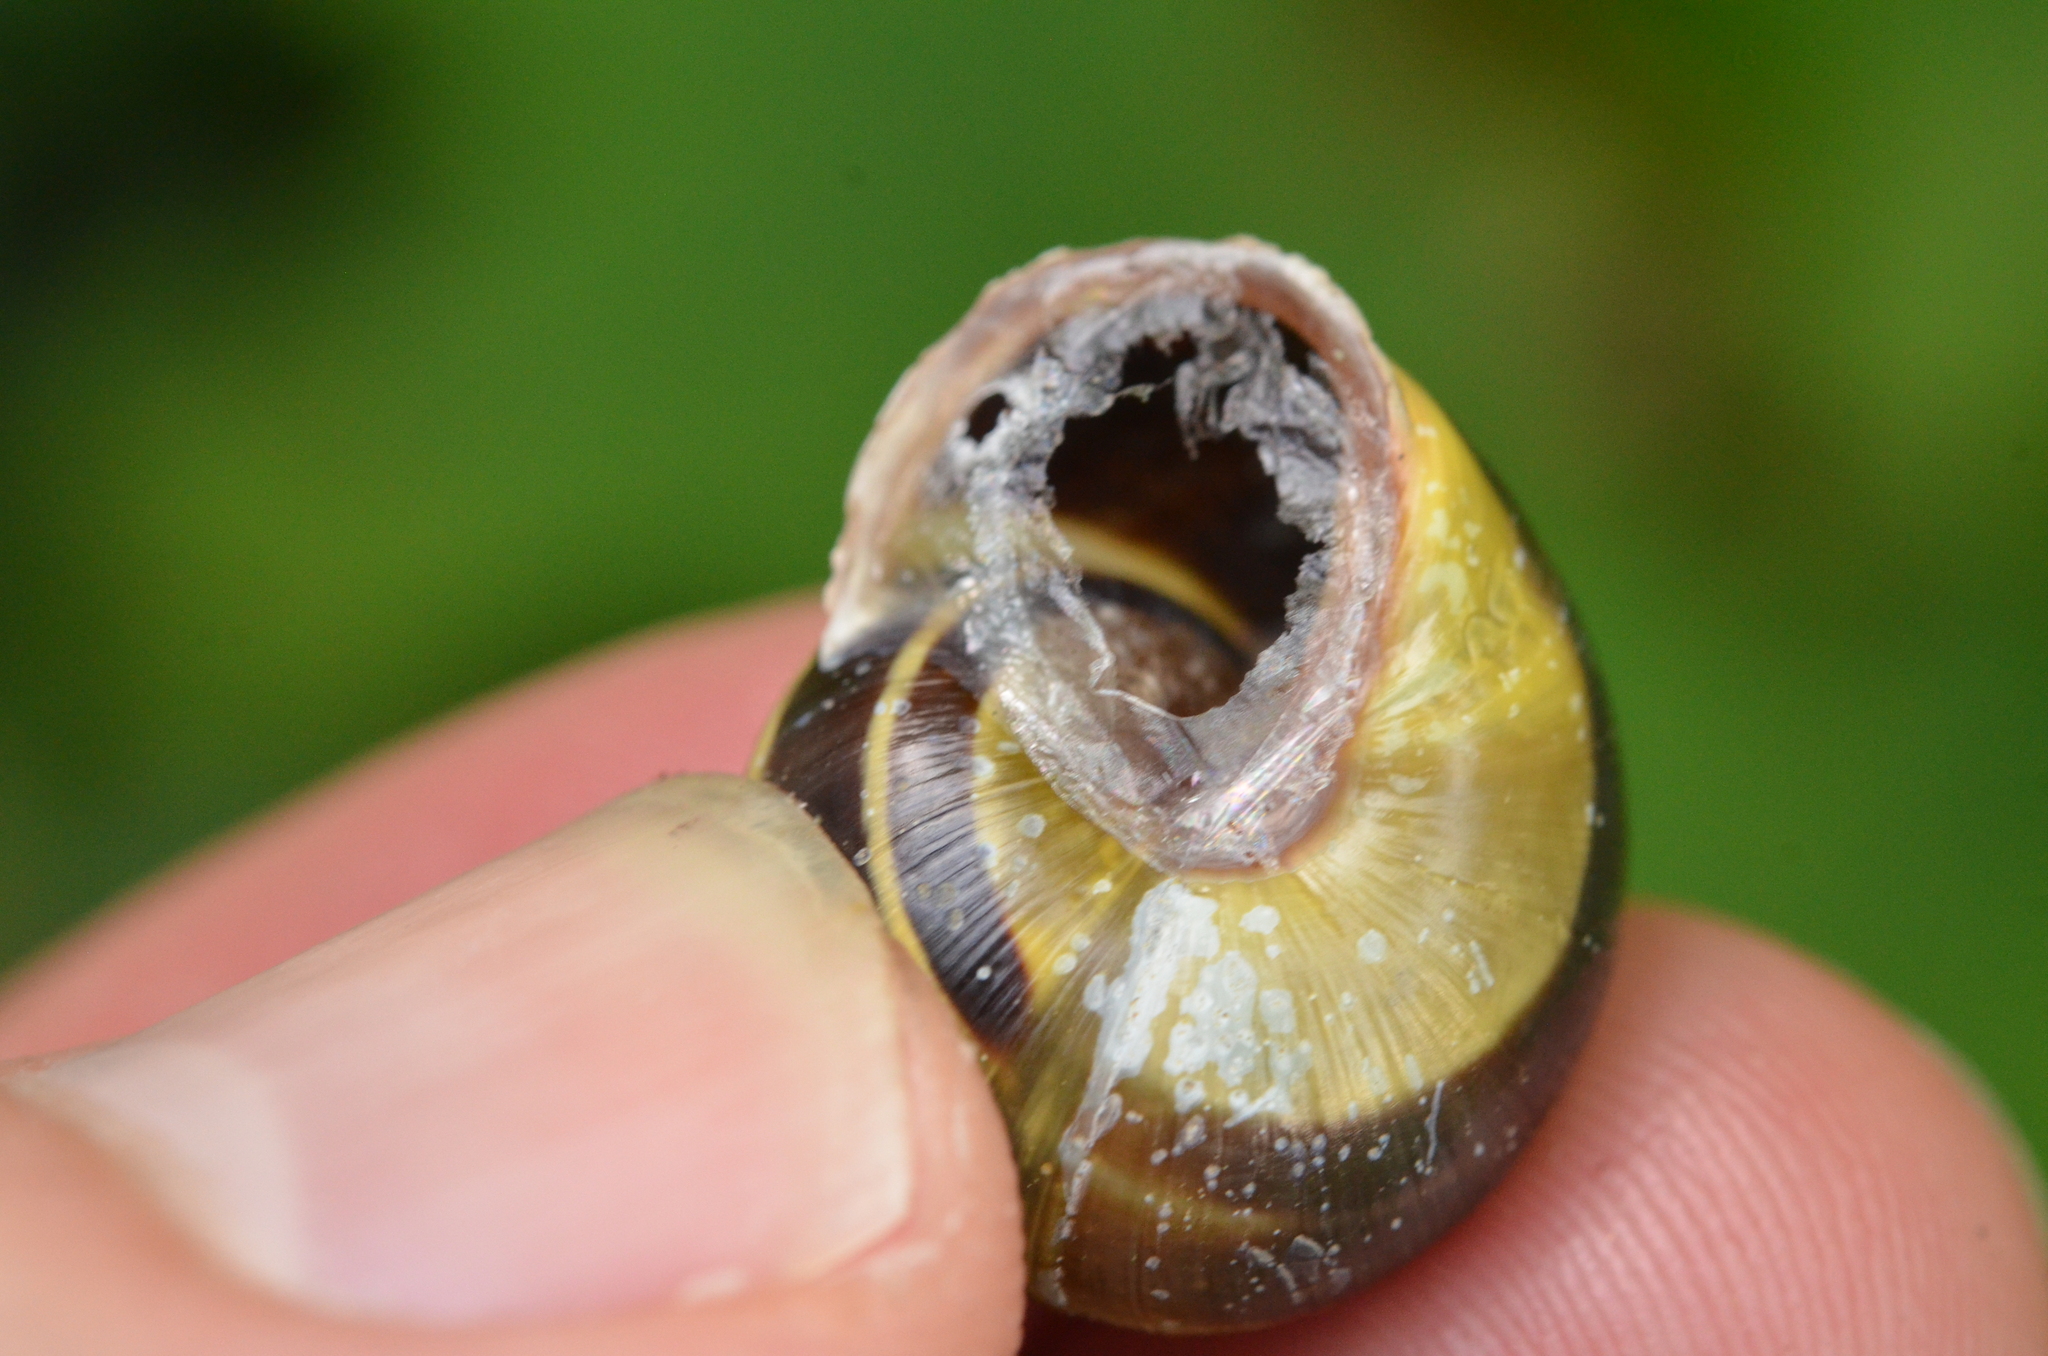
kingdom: Animalia
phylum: Mollusca
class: Gastropoda
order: Stylommatophora
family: Helicidae
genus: Cepaea
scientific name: Cepaea nemoralis
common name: Grovesnail
